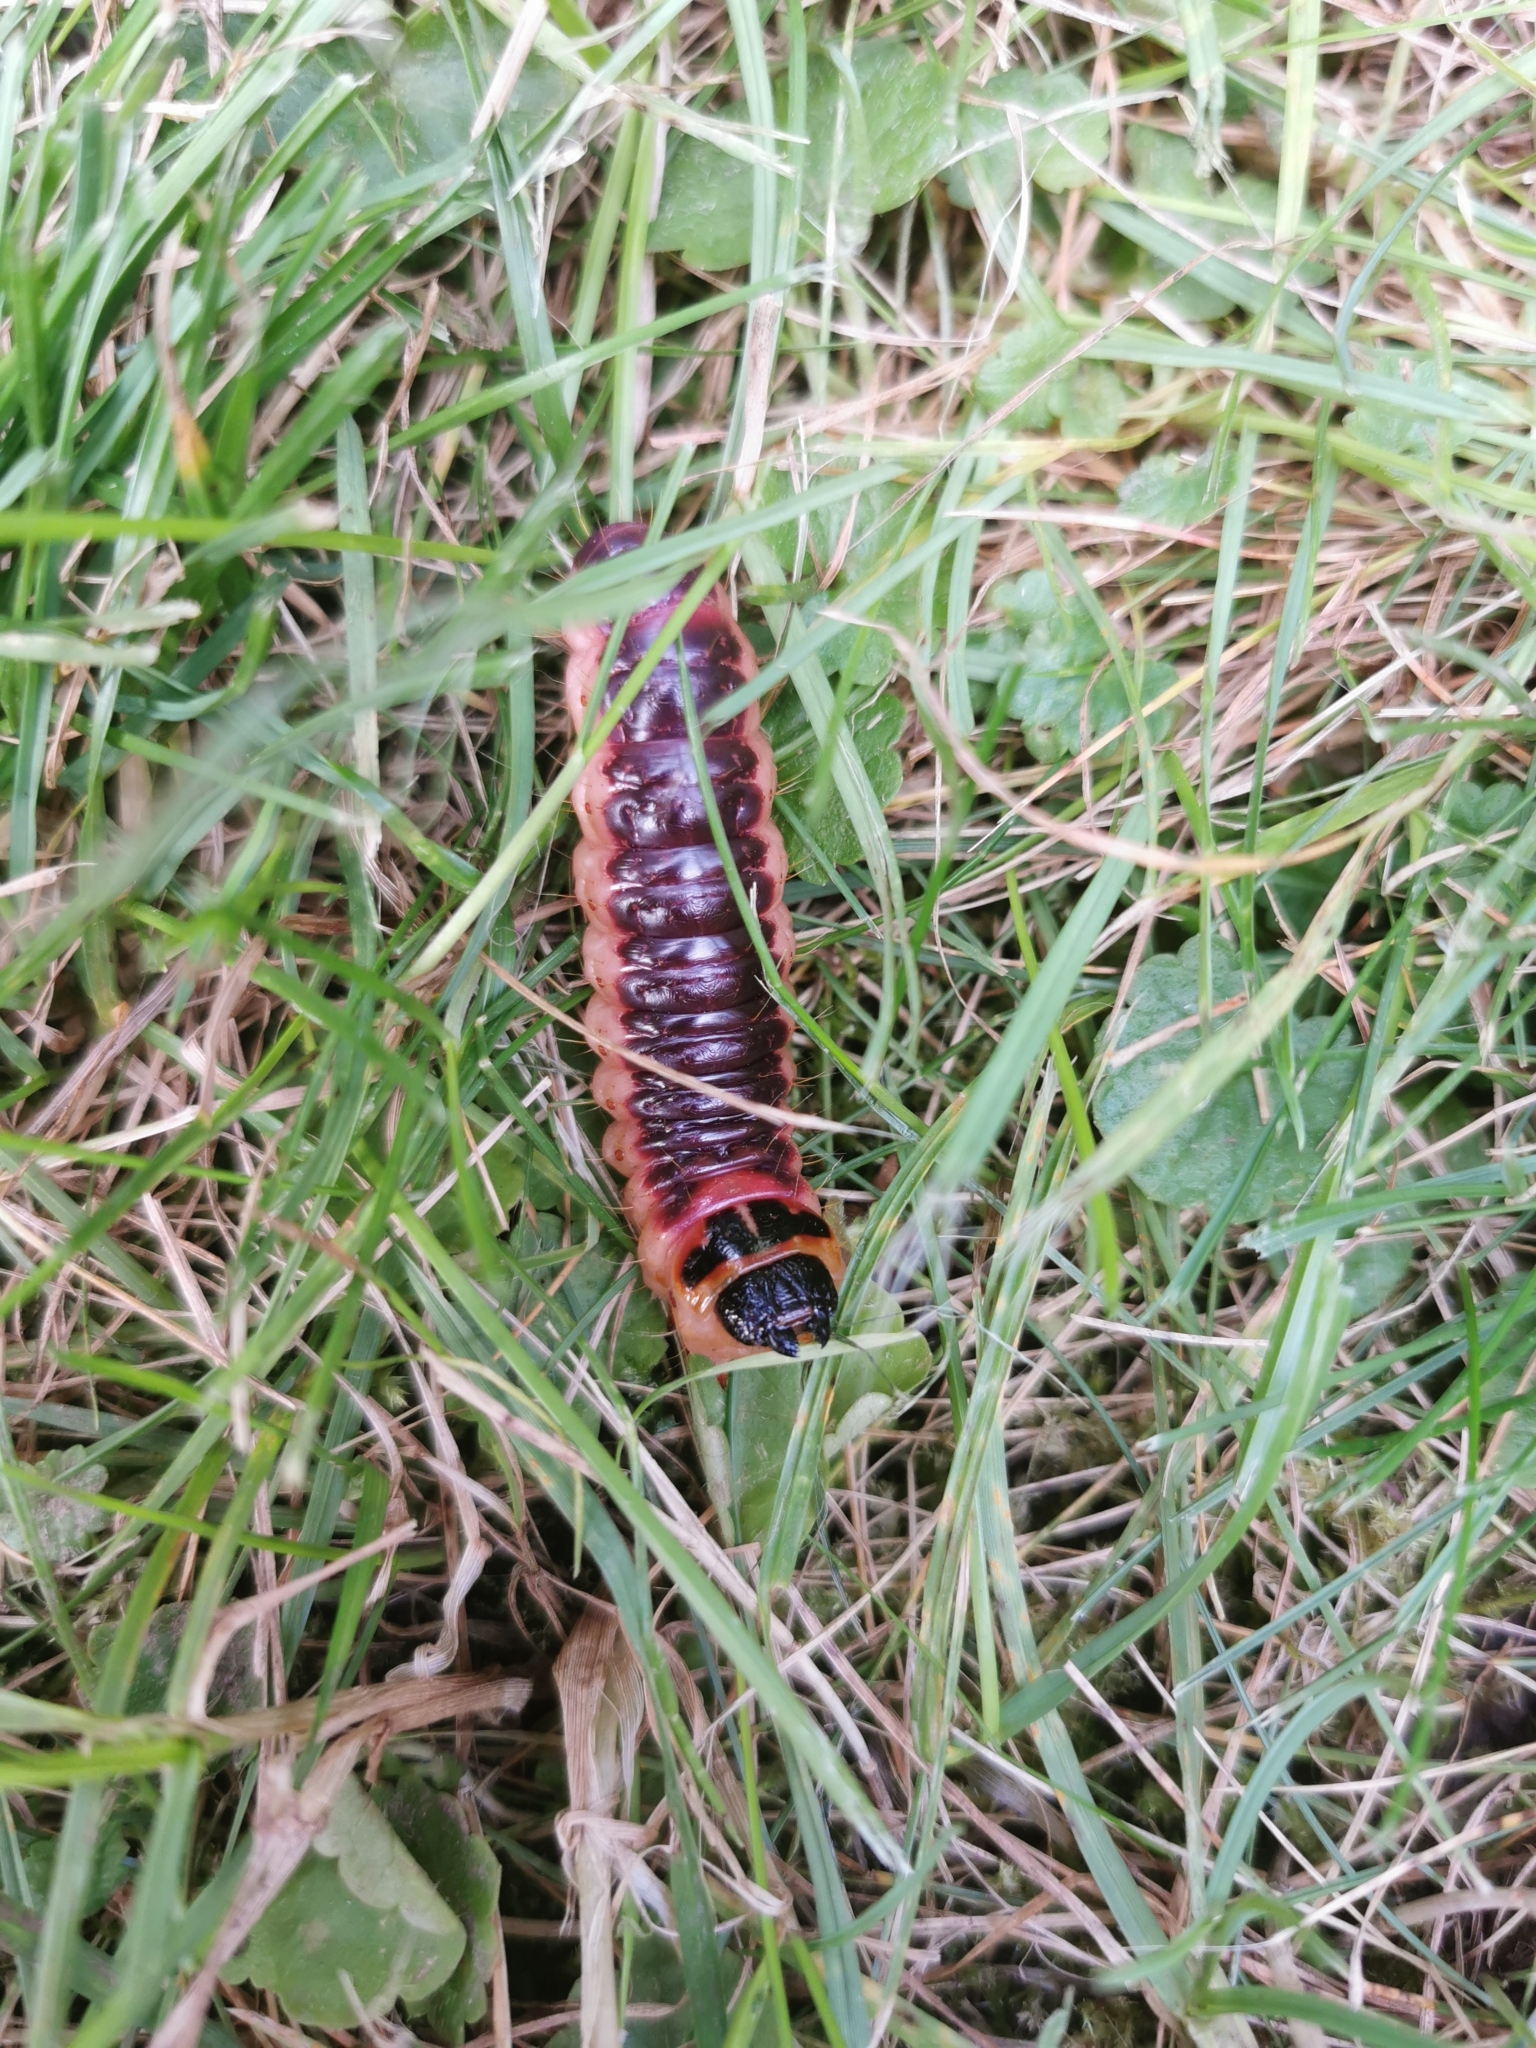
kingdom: Animalia
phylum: Arthropoda
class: Insecta
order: Lepidoptera
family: Cossidae
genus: Cossus
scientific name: Cossus cossus
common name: Goat moth
